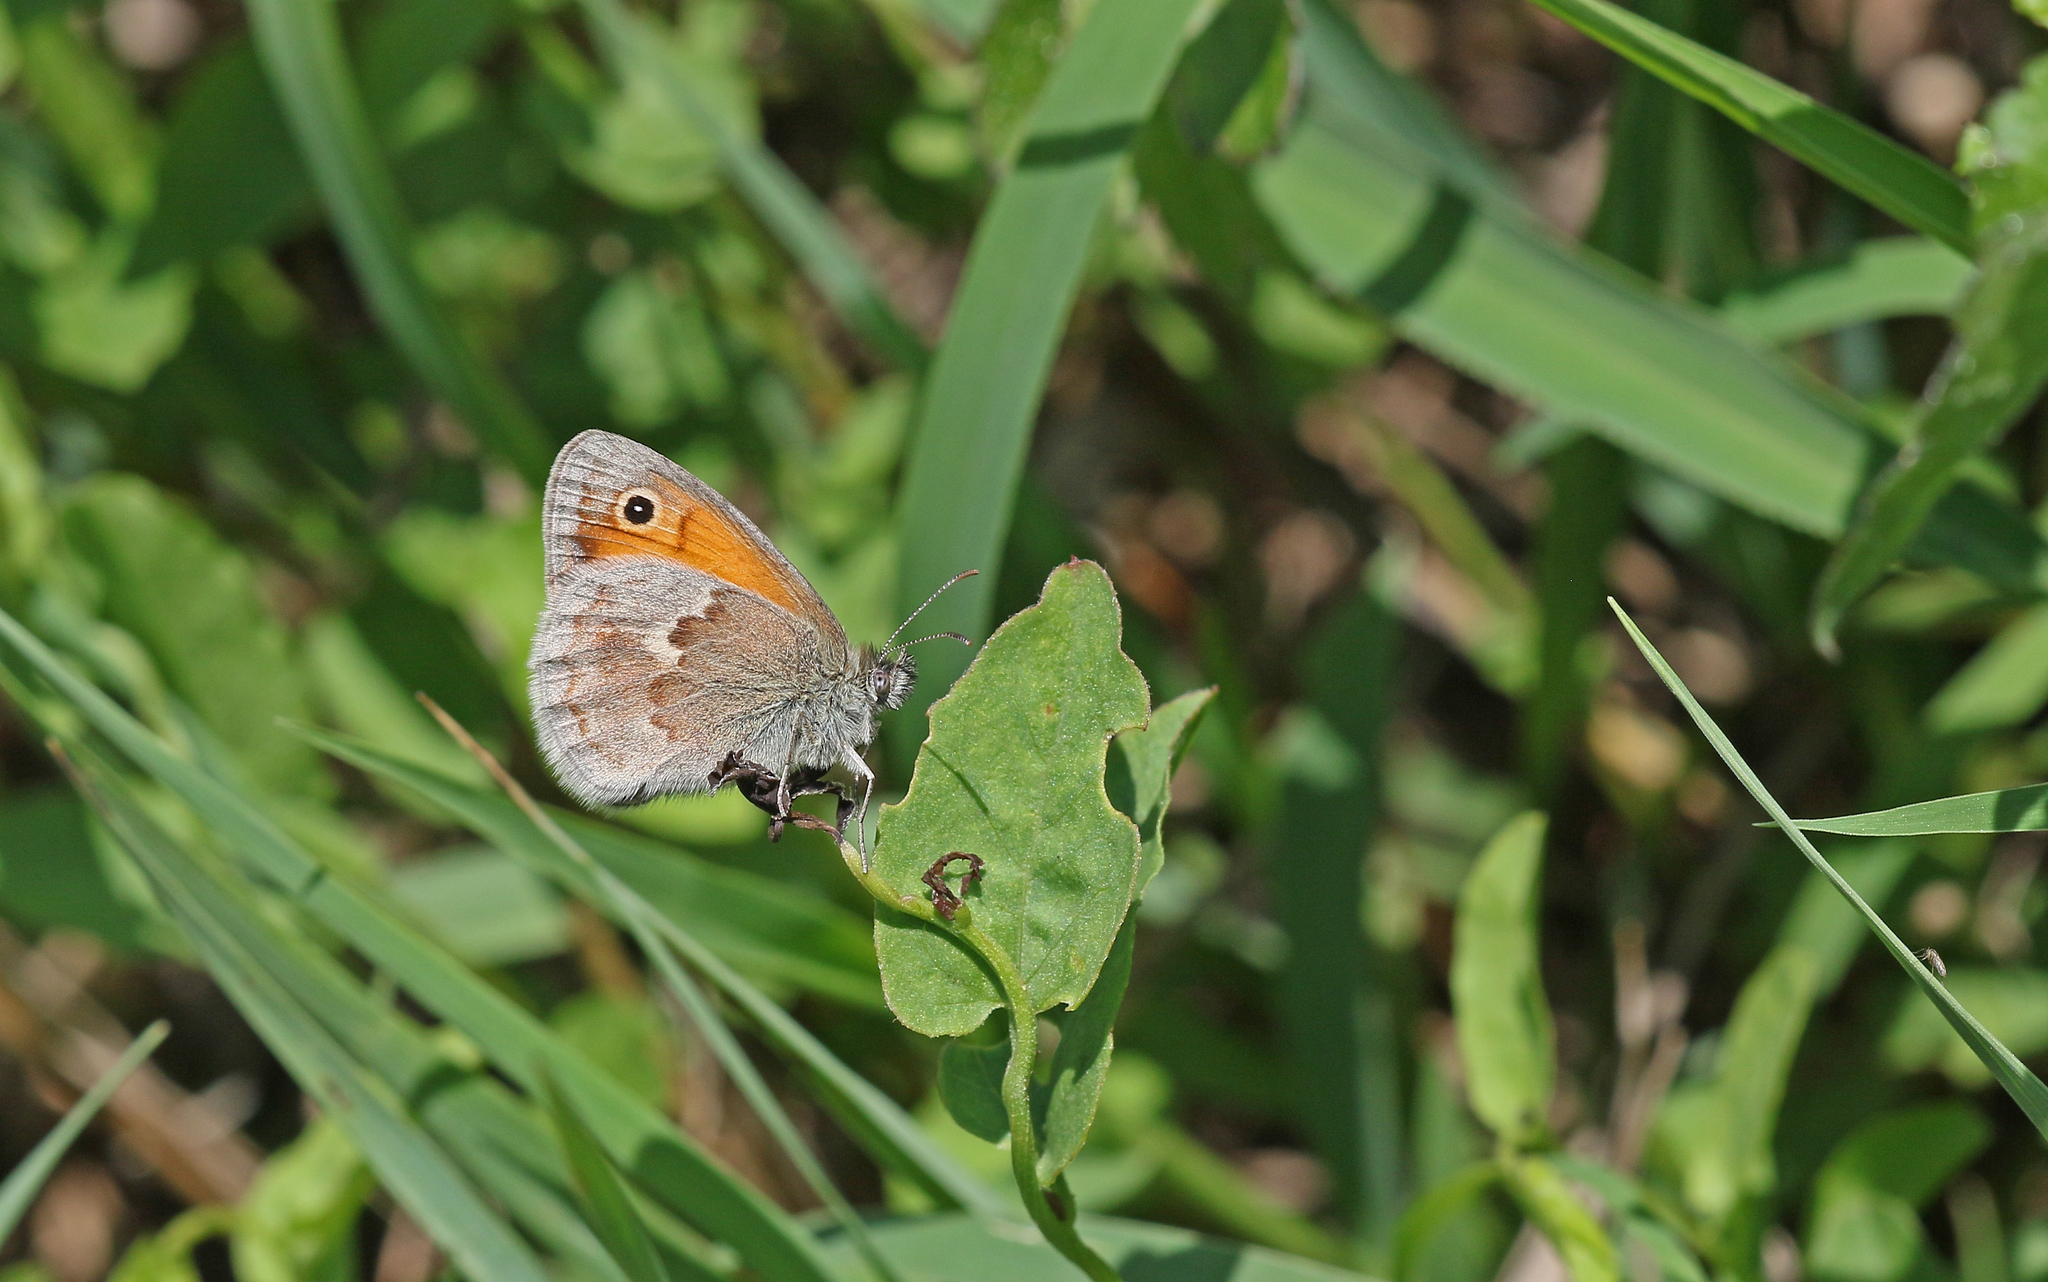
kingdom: Animalia
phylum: Arthropoda
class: Insecta
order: Lepidoptera
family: Nymphalidae
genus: Coenonympha
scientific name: Coenonympha pamphilus
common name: Small heath
